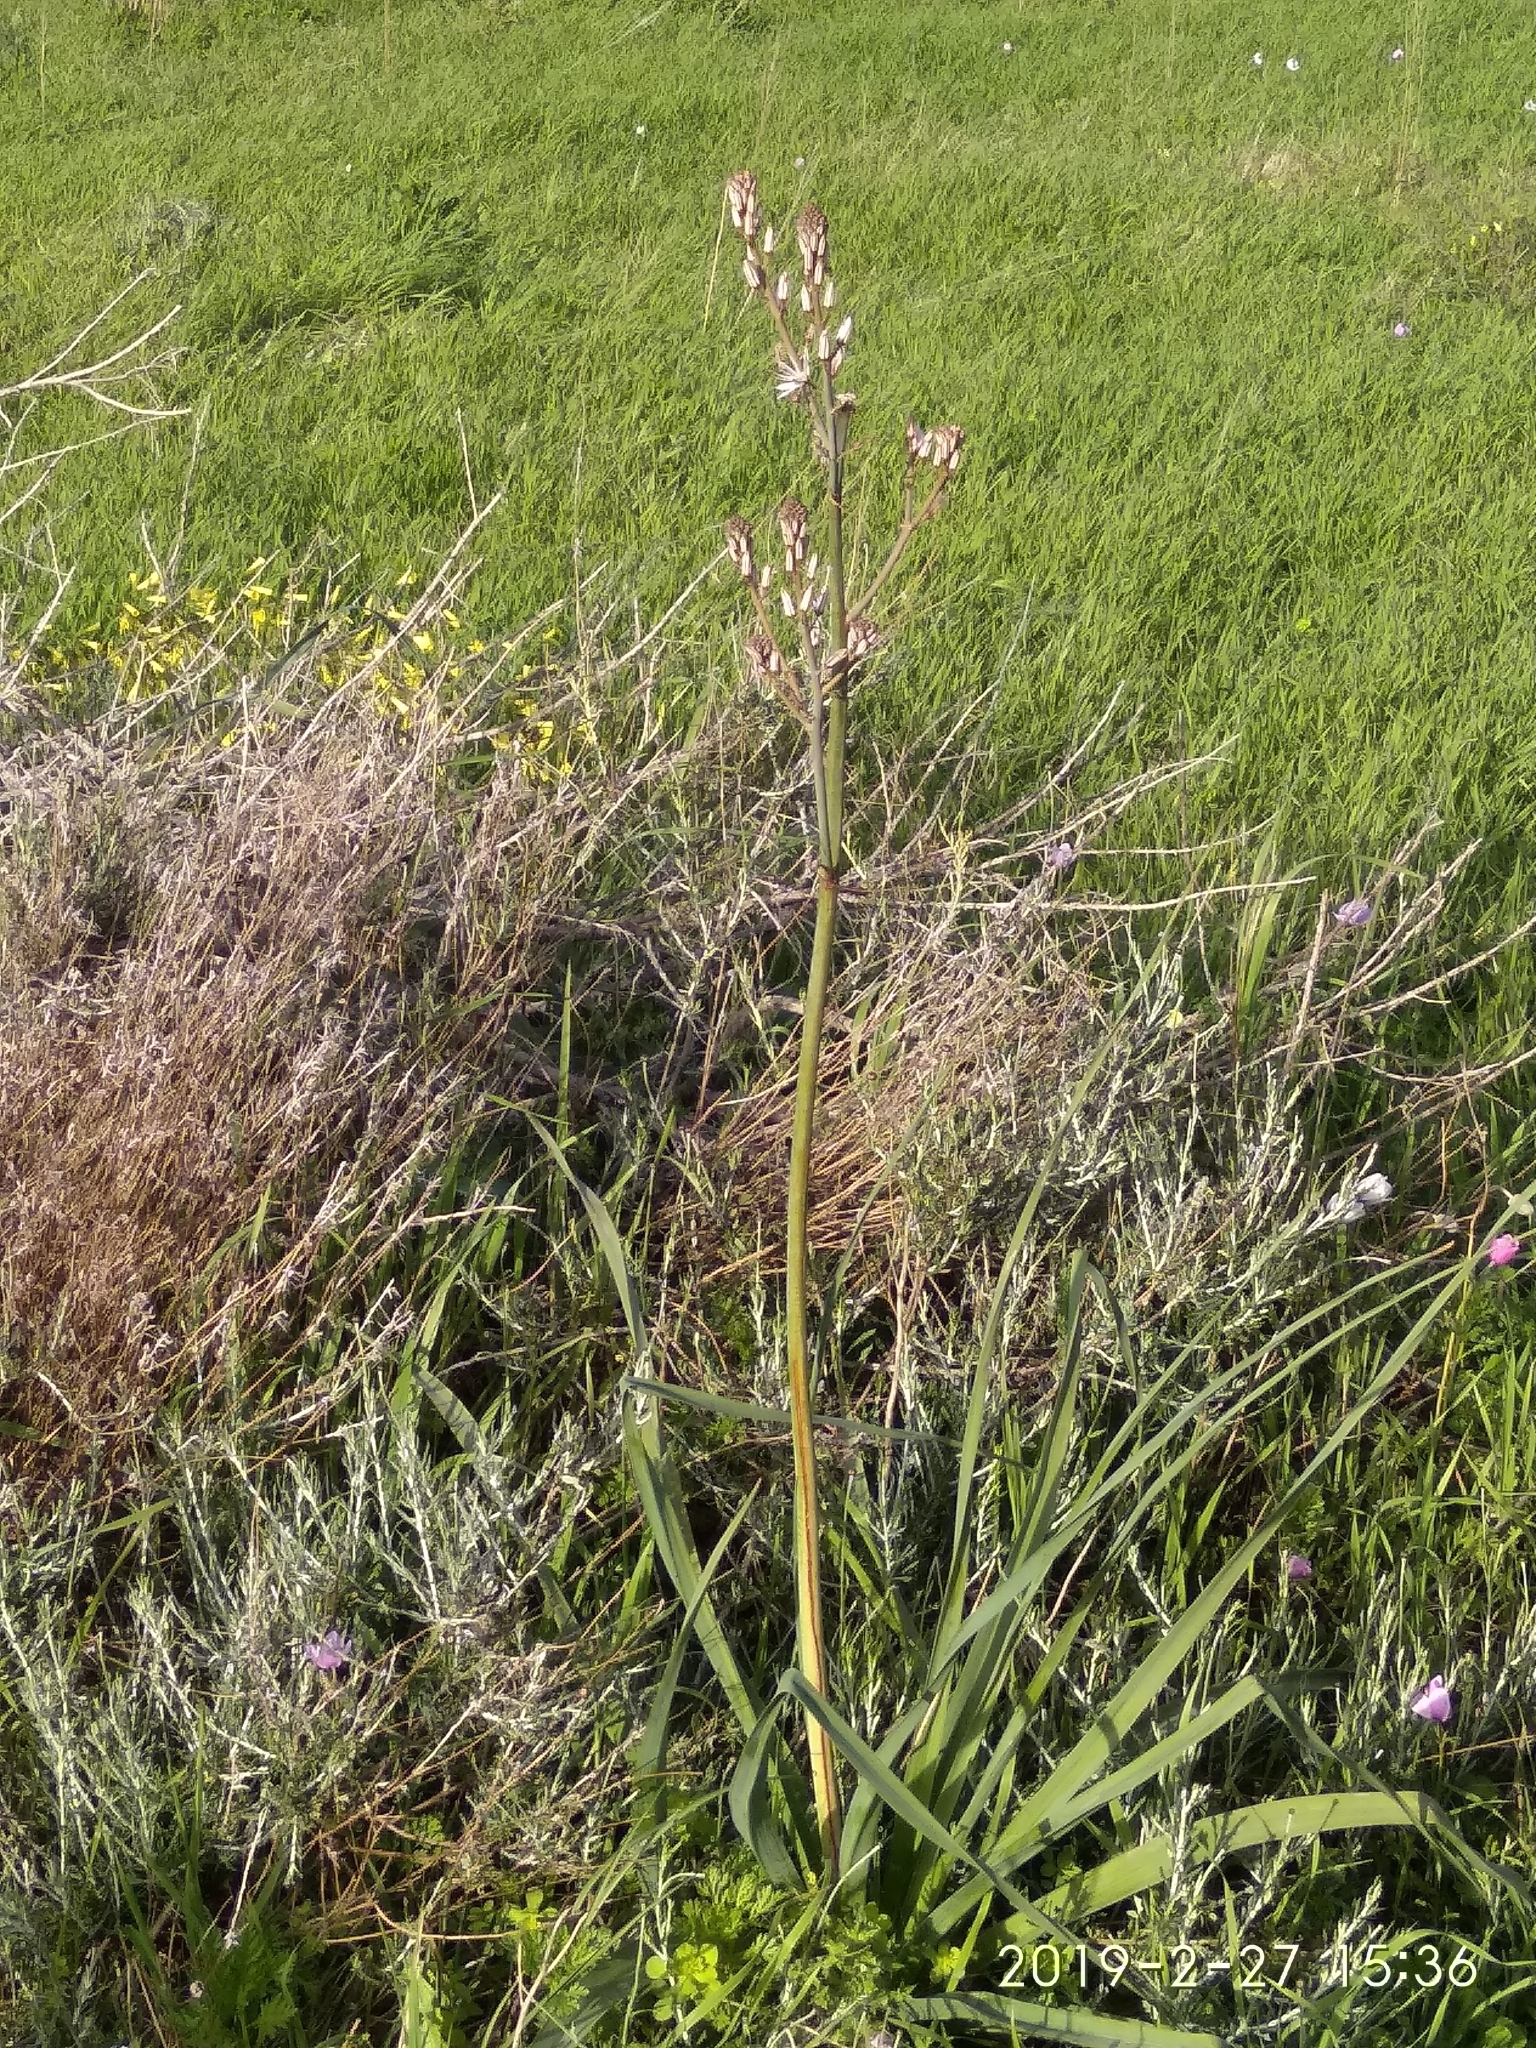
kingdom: Plantae
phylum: Tracheophyta
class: Liliopsida
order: Asparagales
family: Asphodelaceae
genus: Asphodelus
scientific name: Asphodelus ramosus
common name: Silverrod
